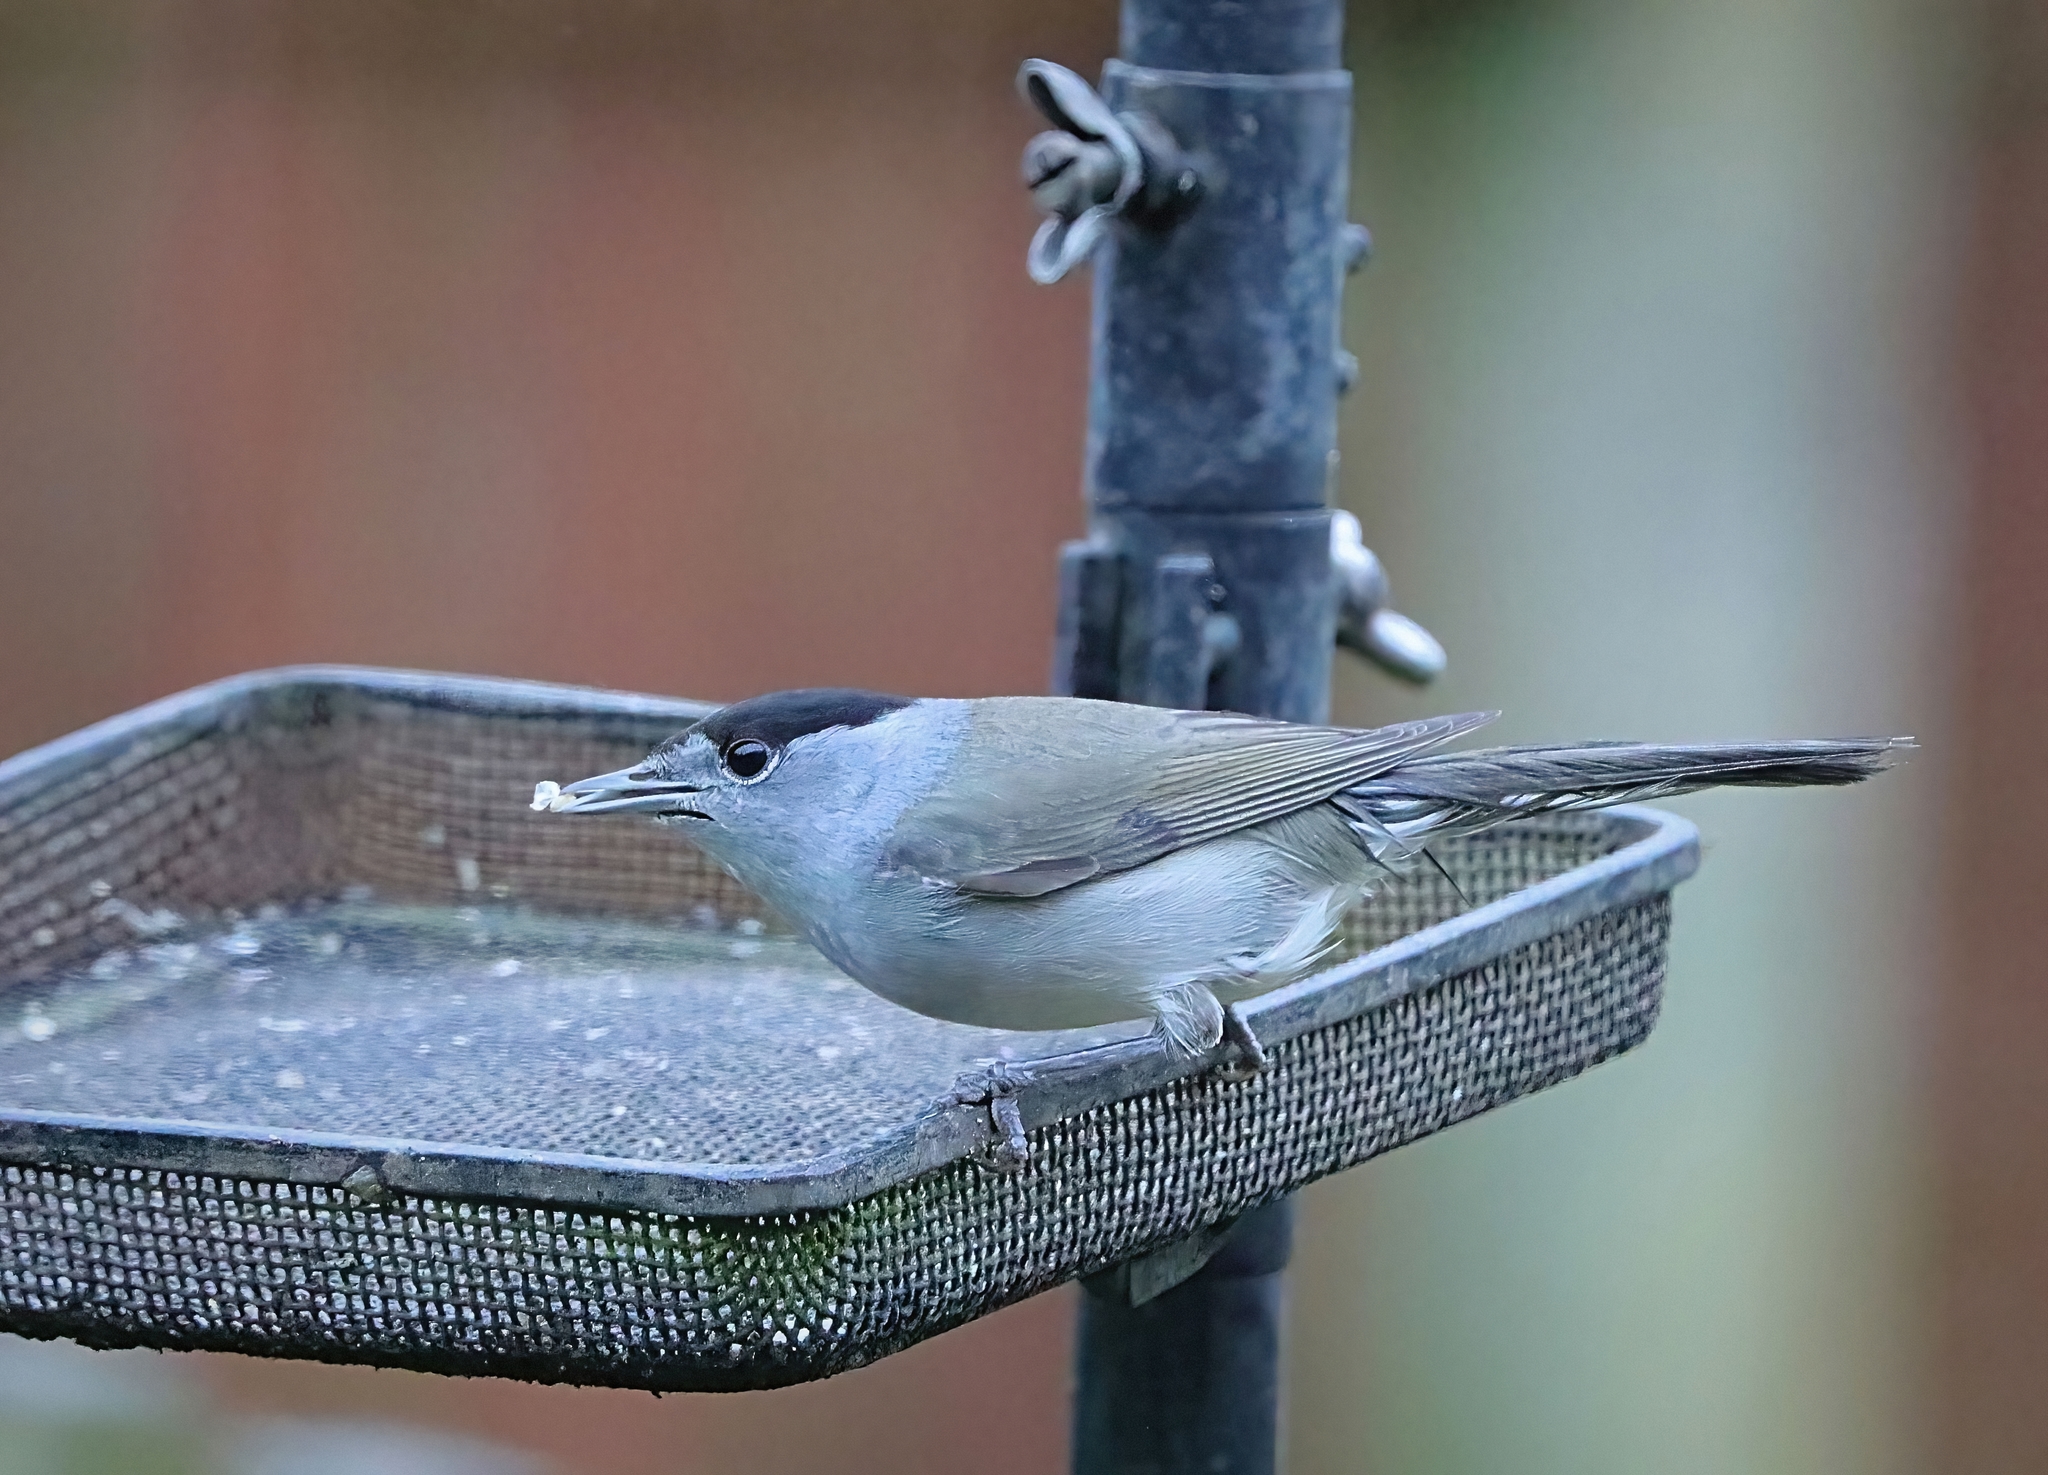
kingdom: Animalia
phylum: Chordata
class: Aves
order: Passeriformes
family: Sylviidae
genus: Sylvia
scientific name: Sylvia atricapilla
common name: Eurasian blackcap
